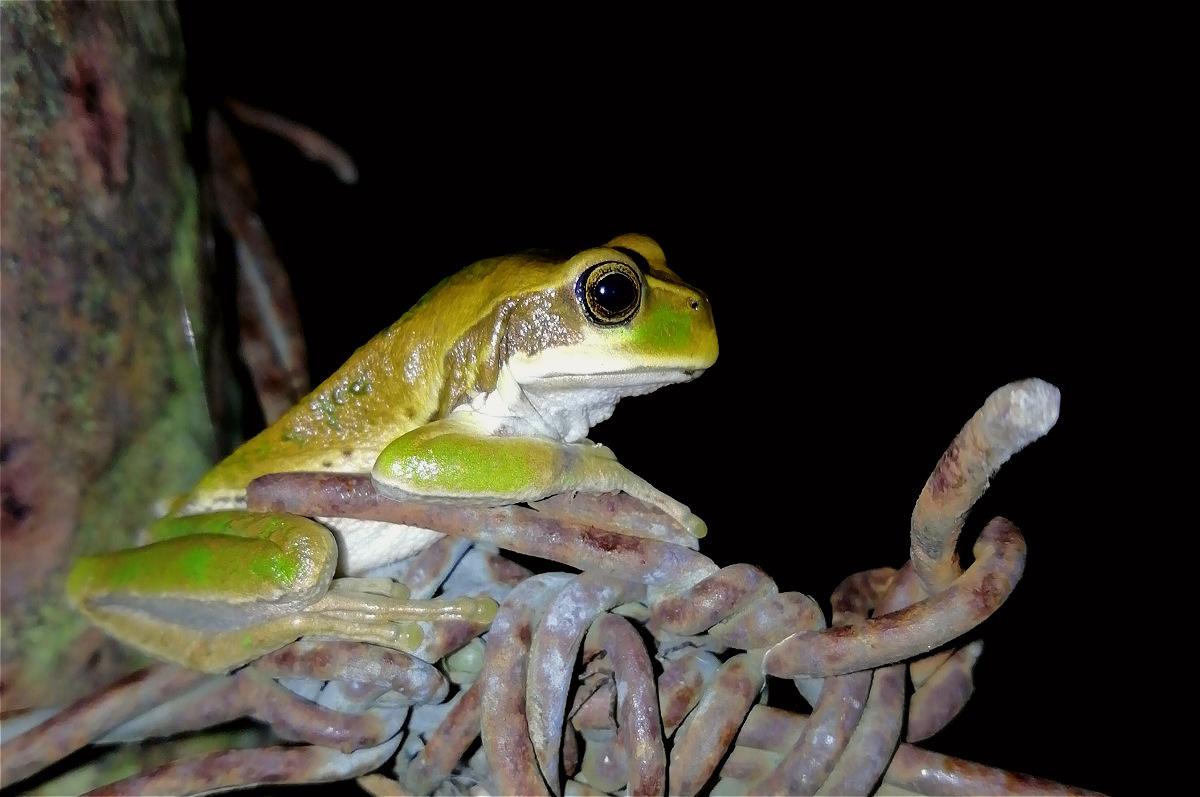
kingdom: Animalia
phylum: Chordata
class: Amphibia
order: Anura
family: Hemiphractidae
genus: Gastrotheca
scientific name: Gastrotheca cuencana
